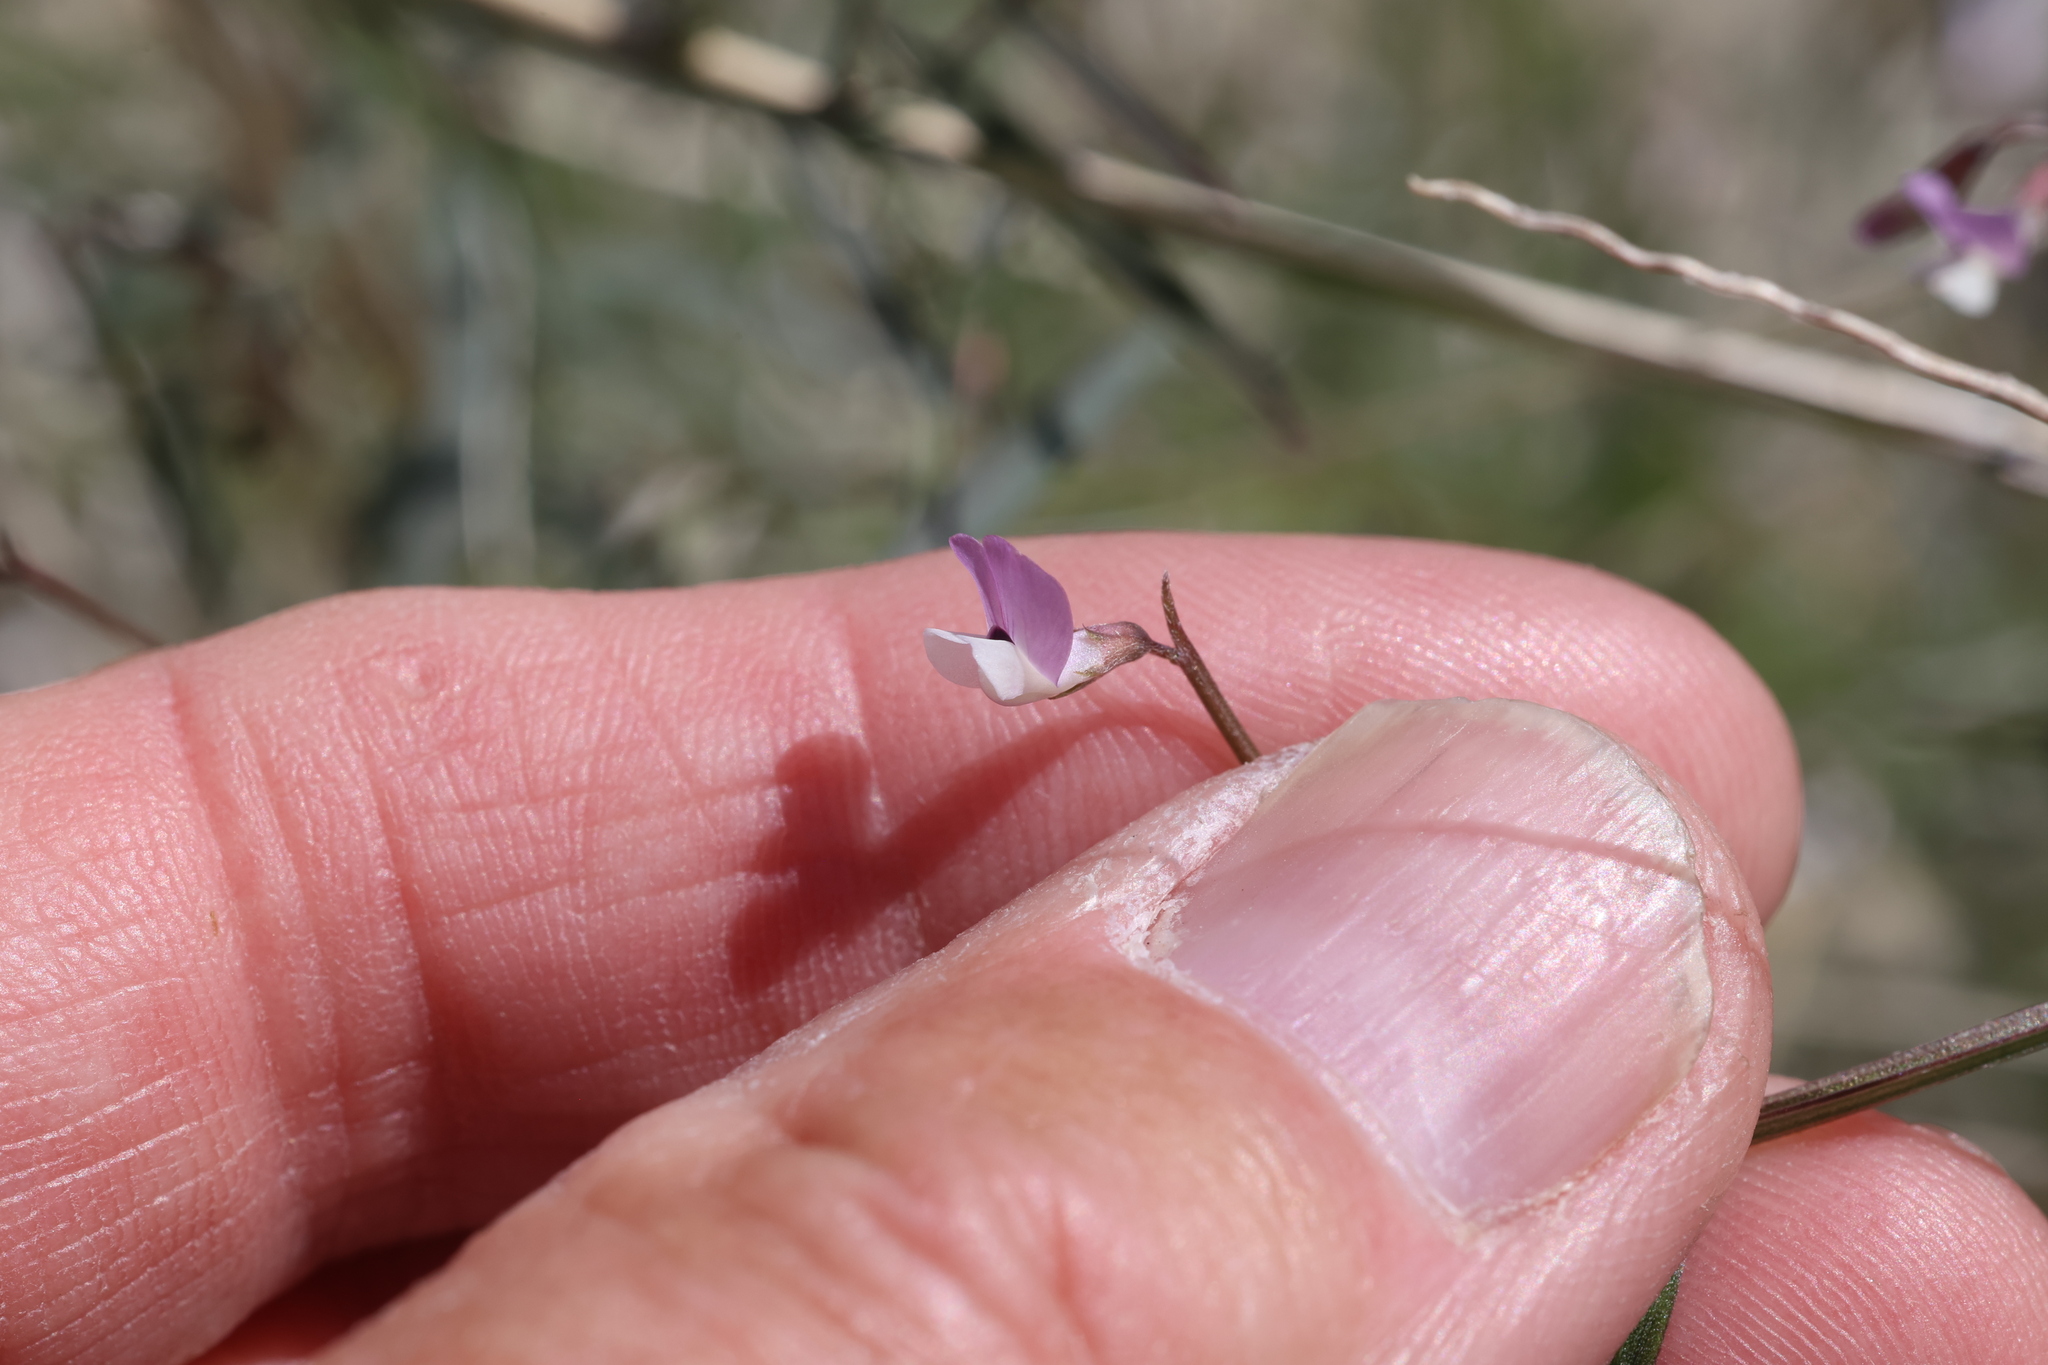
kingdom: Plantae
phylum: Tracheophyta
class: Magnoliopsida
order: Fabales
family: Fabaceae
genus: Vicia
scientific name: Vicia ludoviciana
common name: Louisiana vetch
